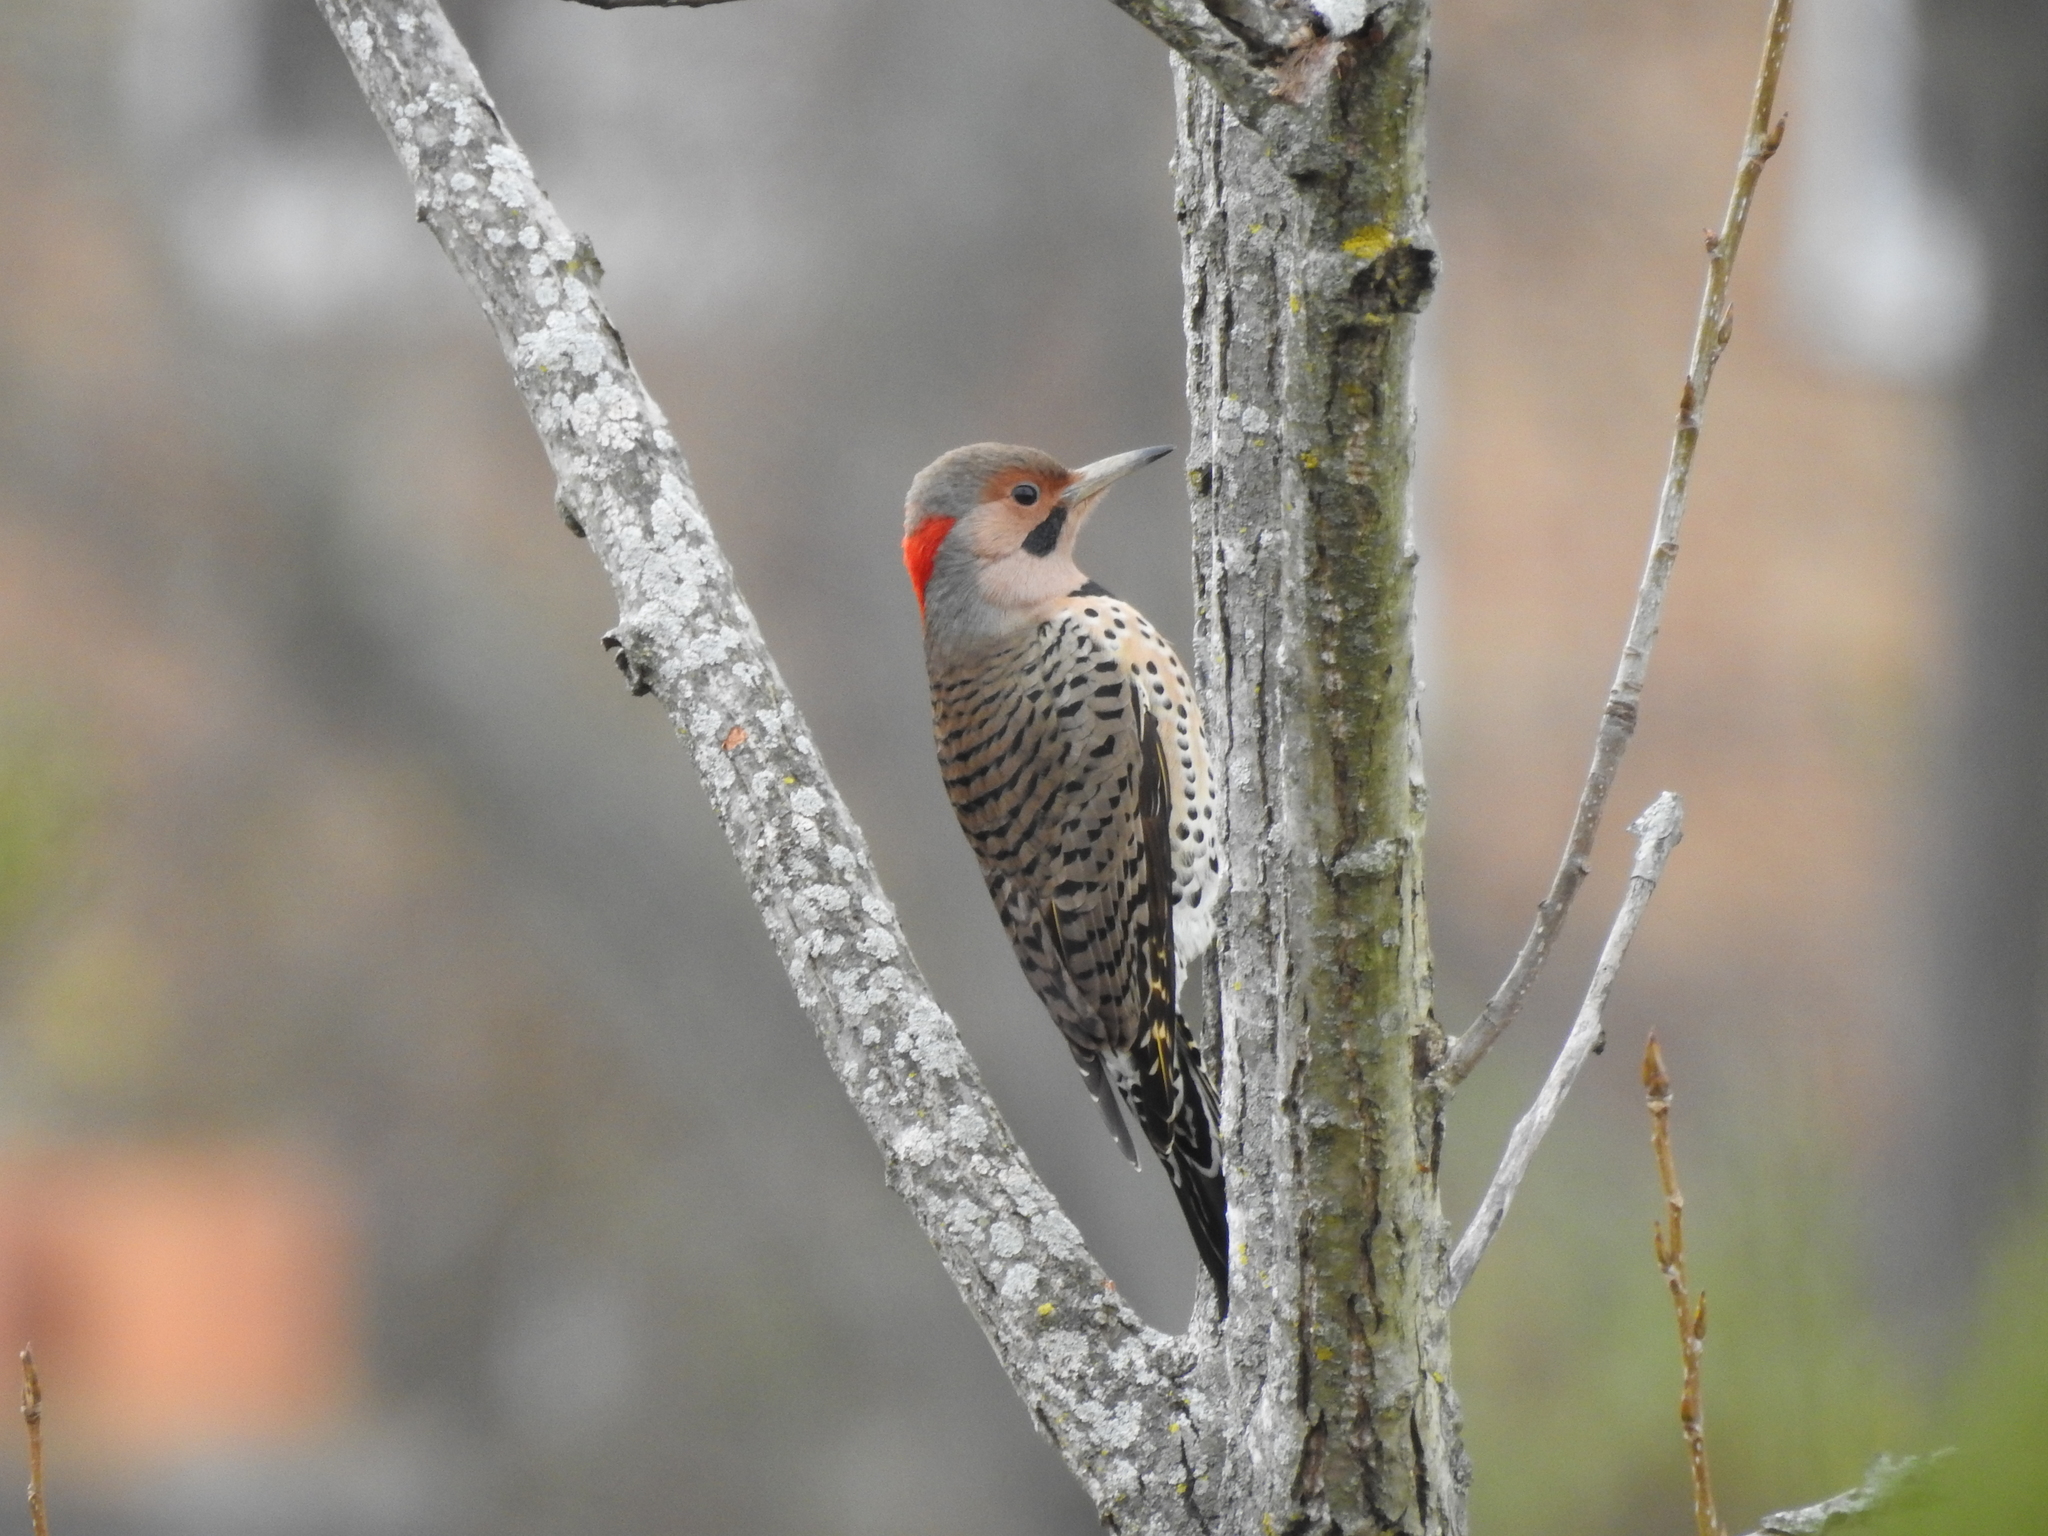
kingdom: Animalia
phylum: Chordata
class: Aves
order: Piciformes
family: Picidae
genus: Colaptes
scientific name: Colaptes auratus
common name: Northern flicker
